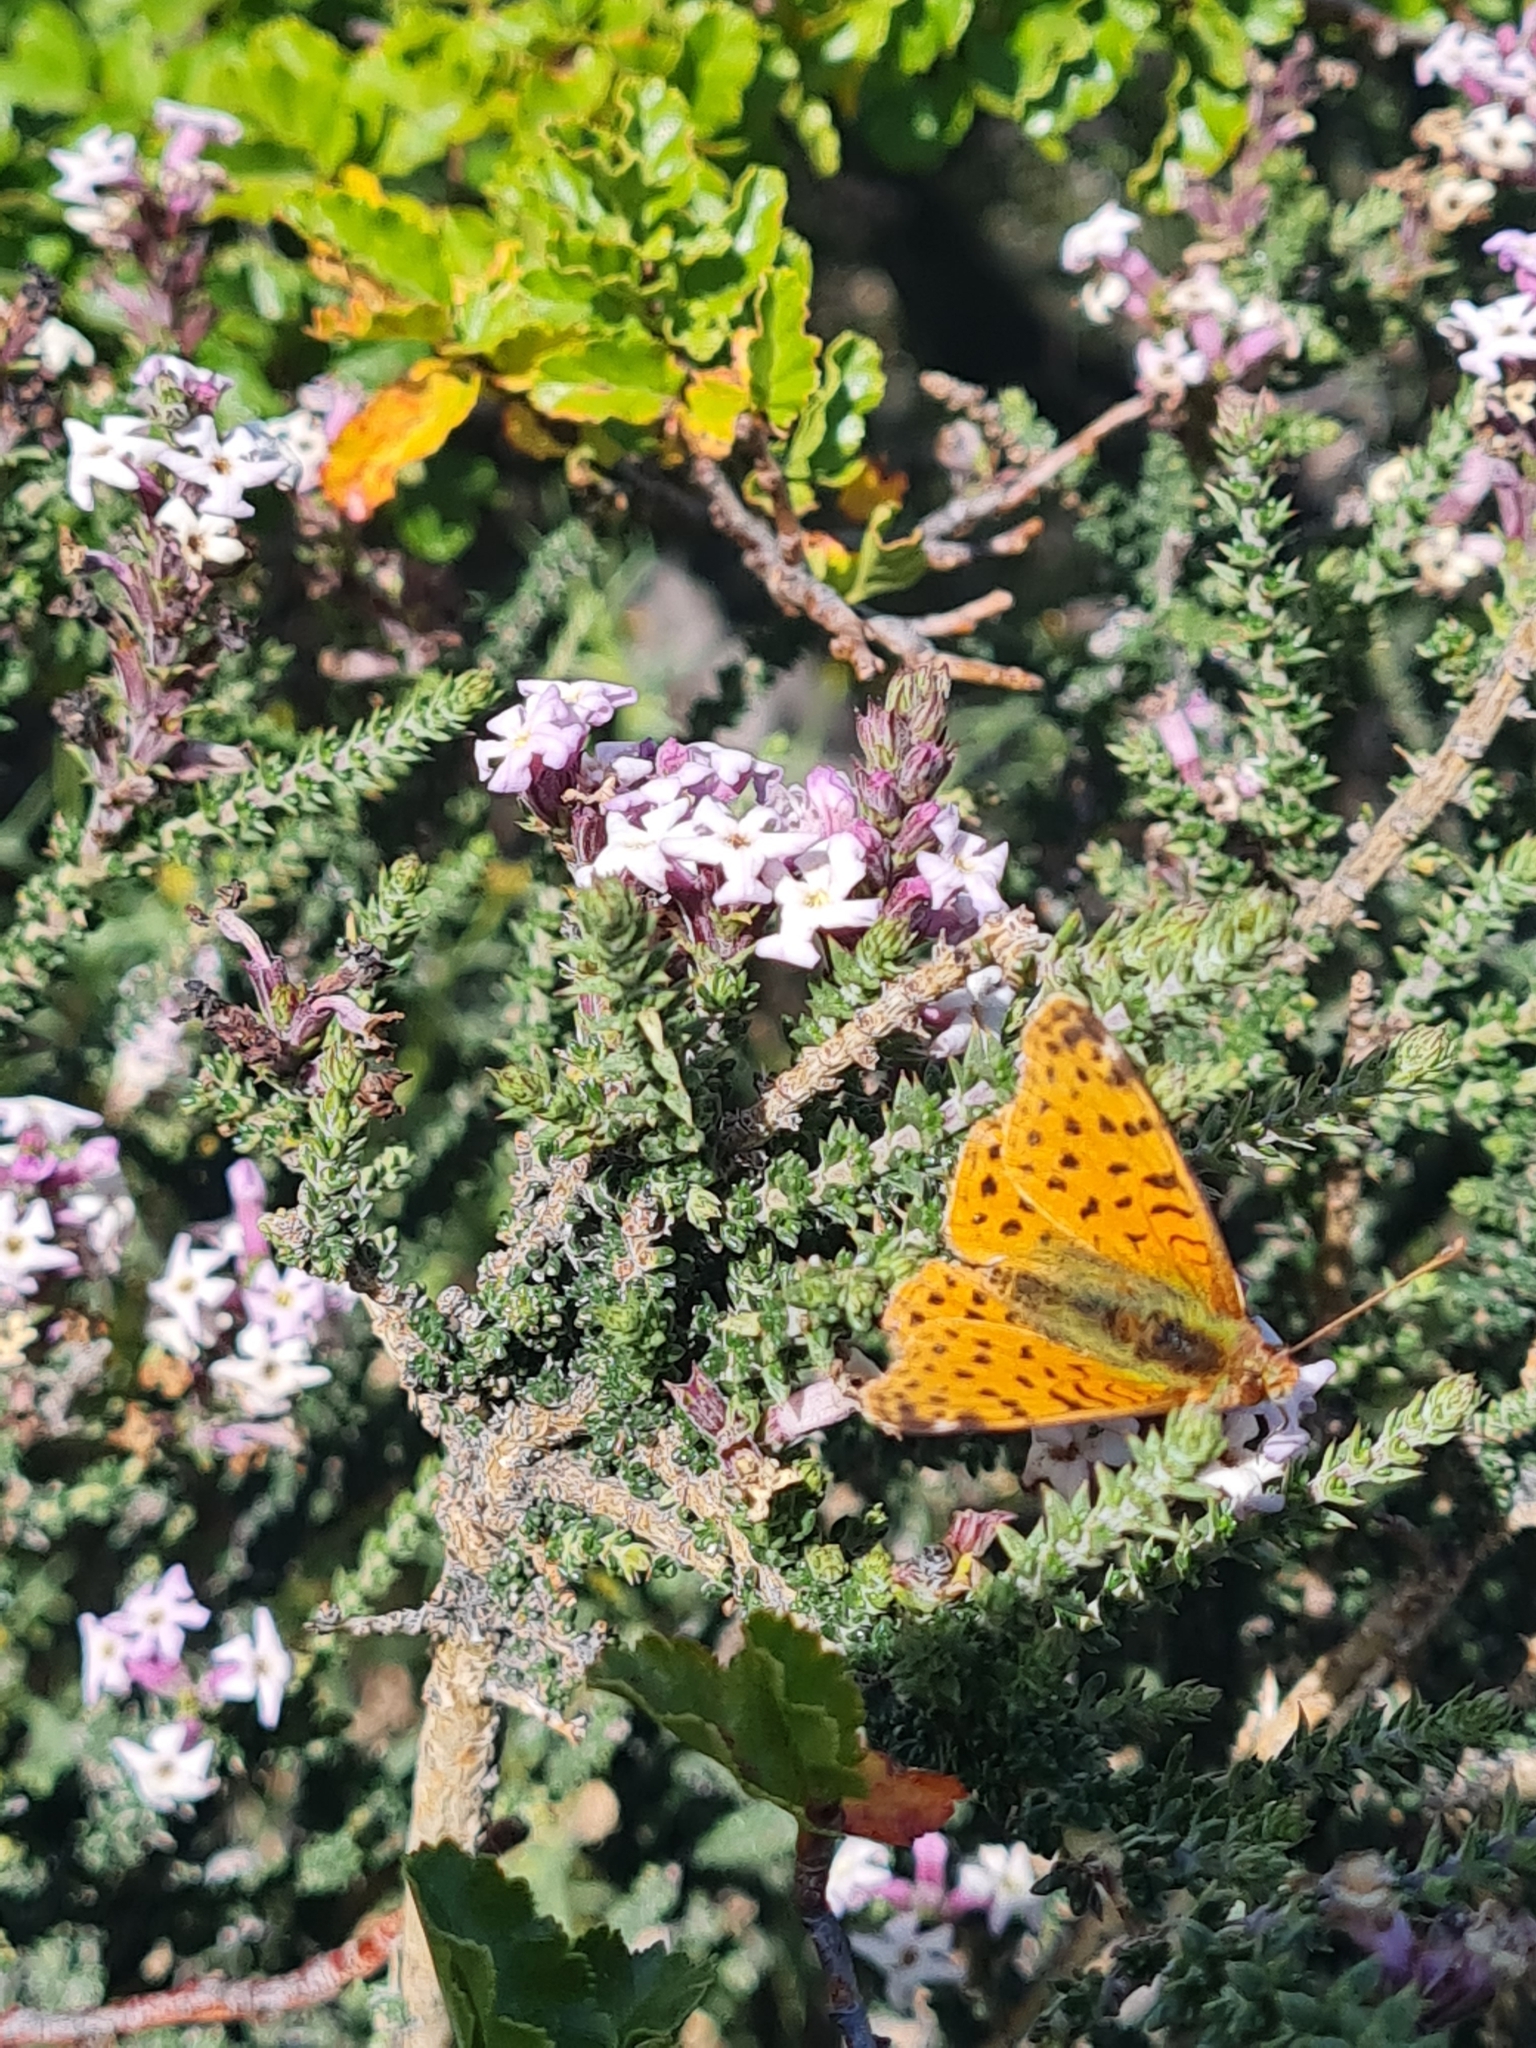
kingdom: Animalia
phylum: Arthropoda
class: Insecta
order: Lepidoptera
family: Nymphalidae
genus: Issoria
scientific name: Issoria Yramea cytheris
